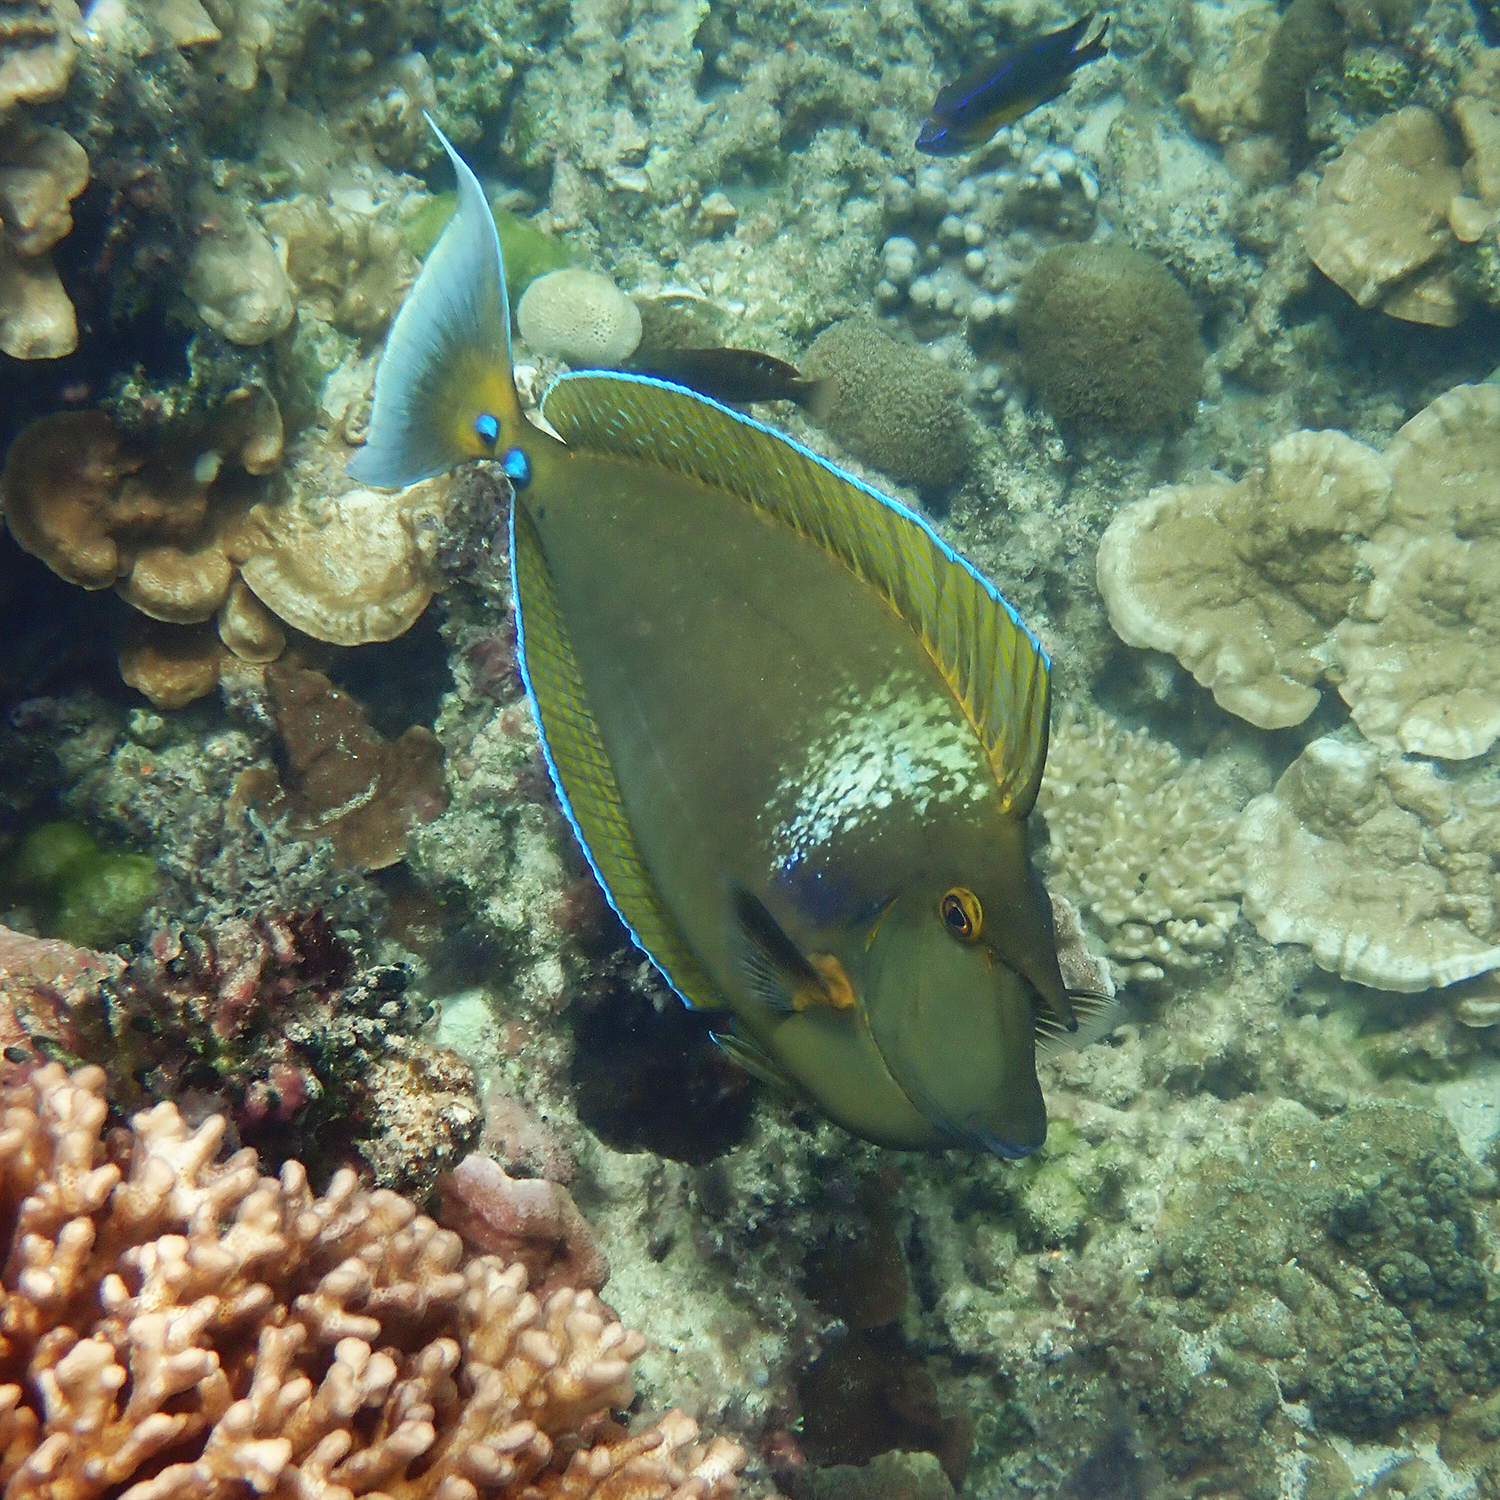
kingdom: Animalia
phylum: Chordata
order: Perciformes
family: Acanthuridae
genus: Naso
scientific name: Naso unicornis
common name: Bluespine unicornfish
